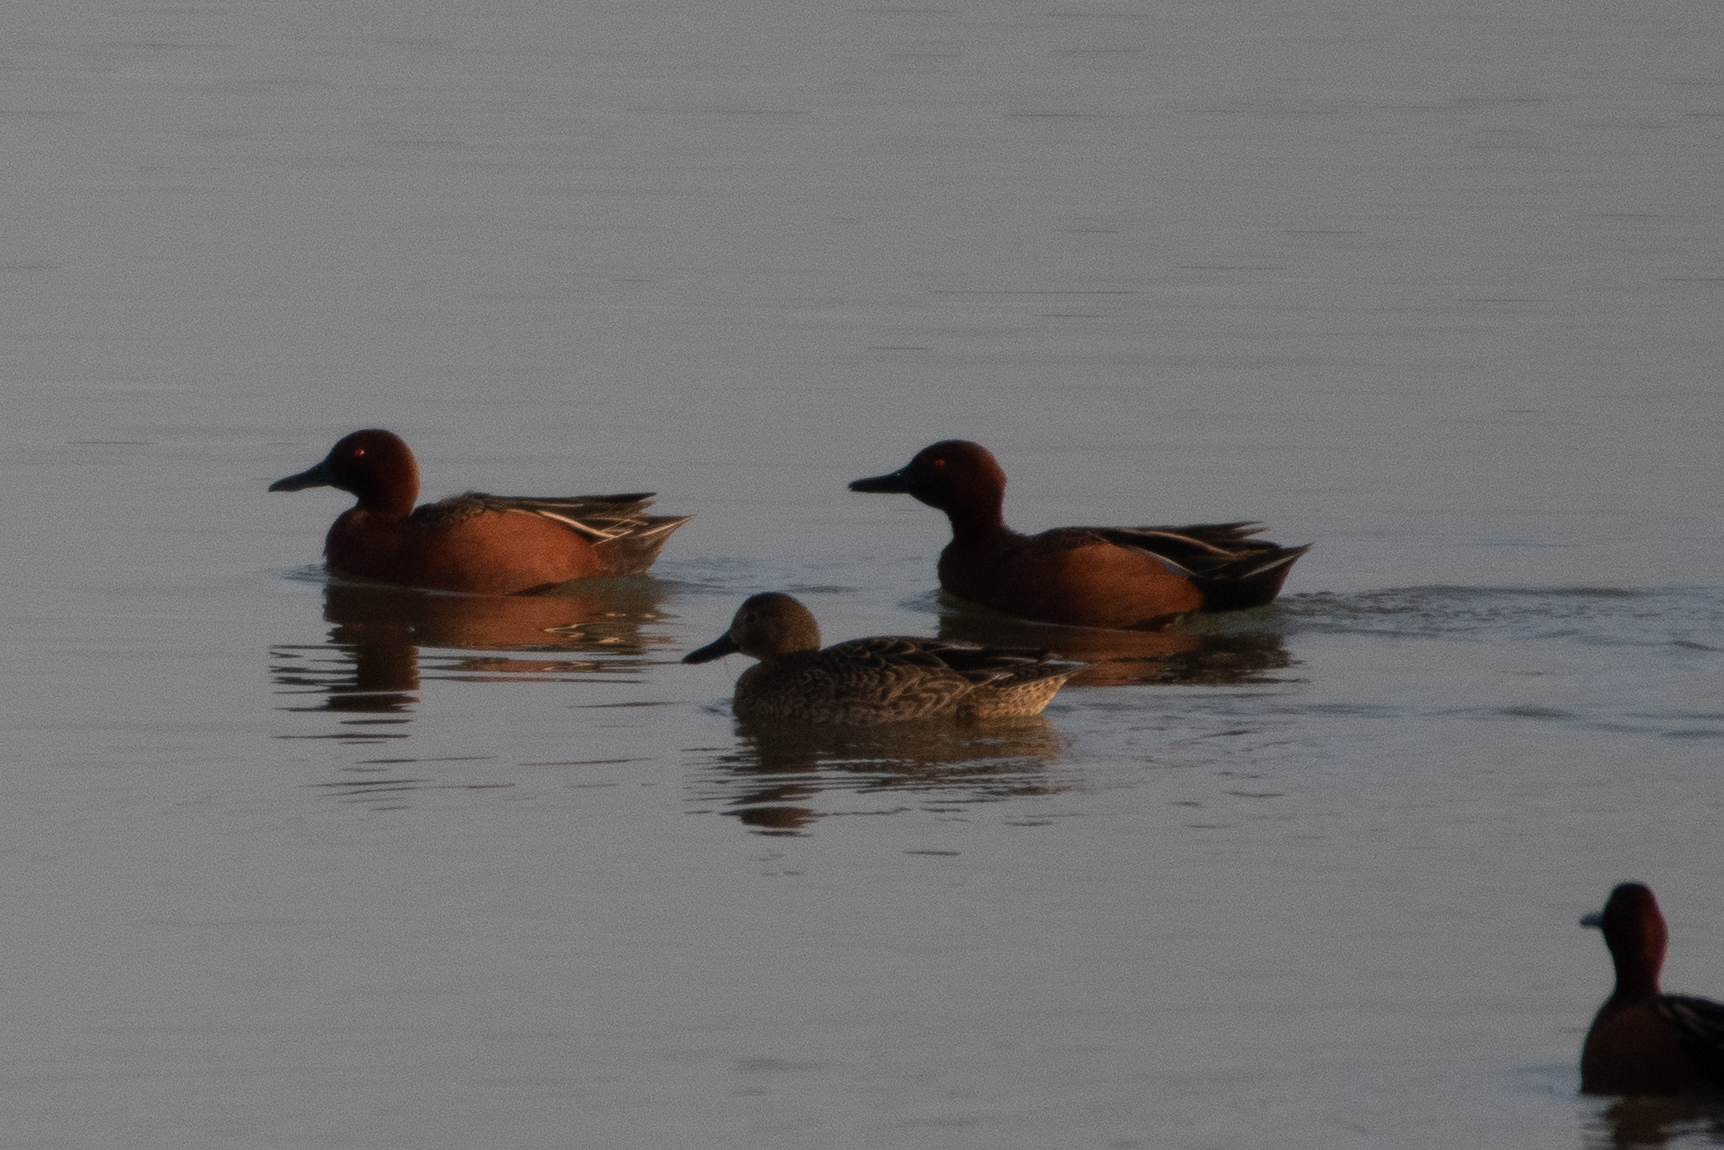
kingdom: Animalia
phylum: Chordata
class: Aves
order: Anseriformes
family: Anatidae
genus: Spatula
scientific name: Spatula cyanoptera
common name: Cinnamon teal
